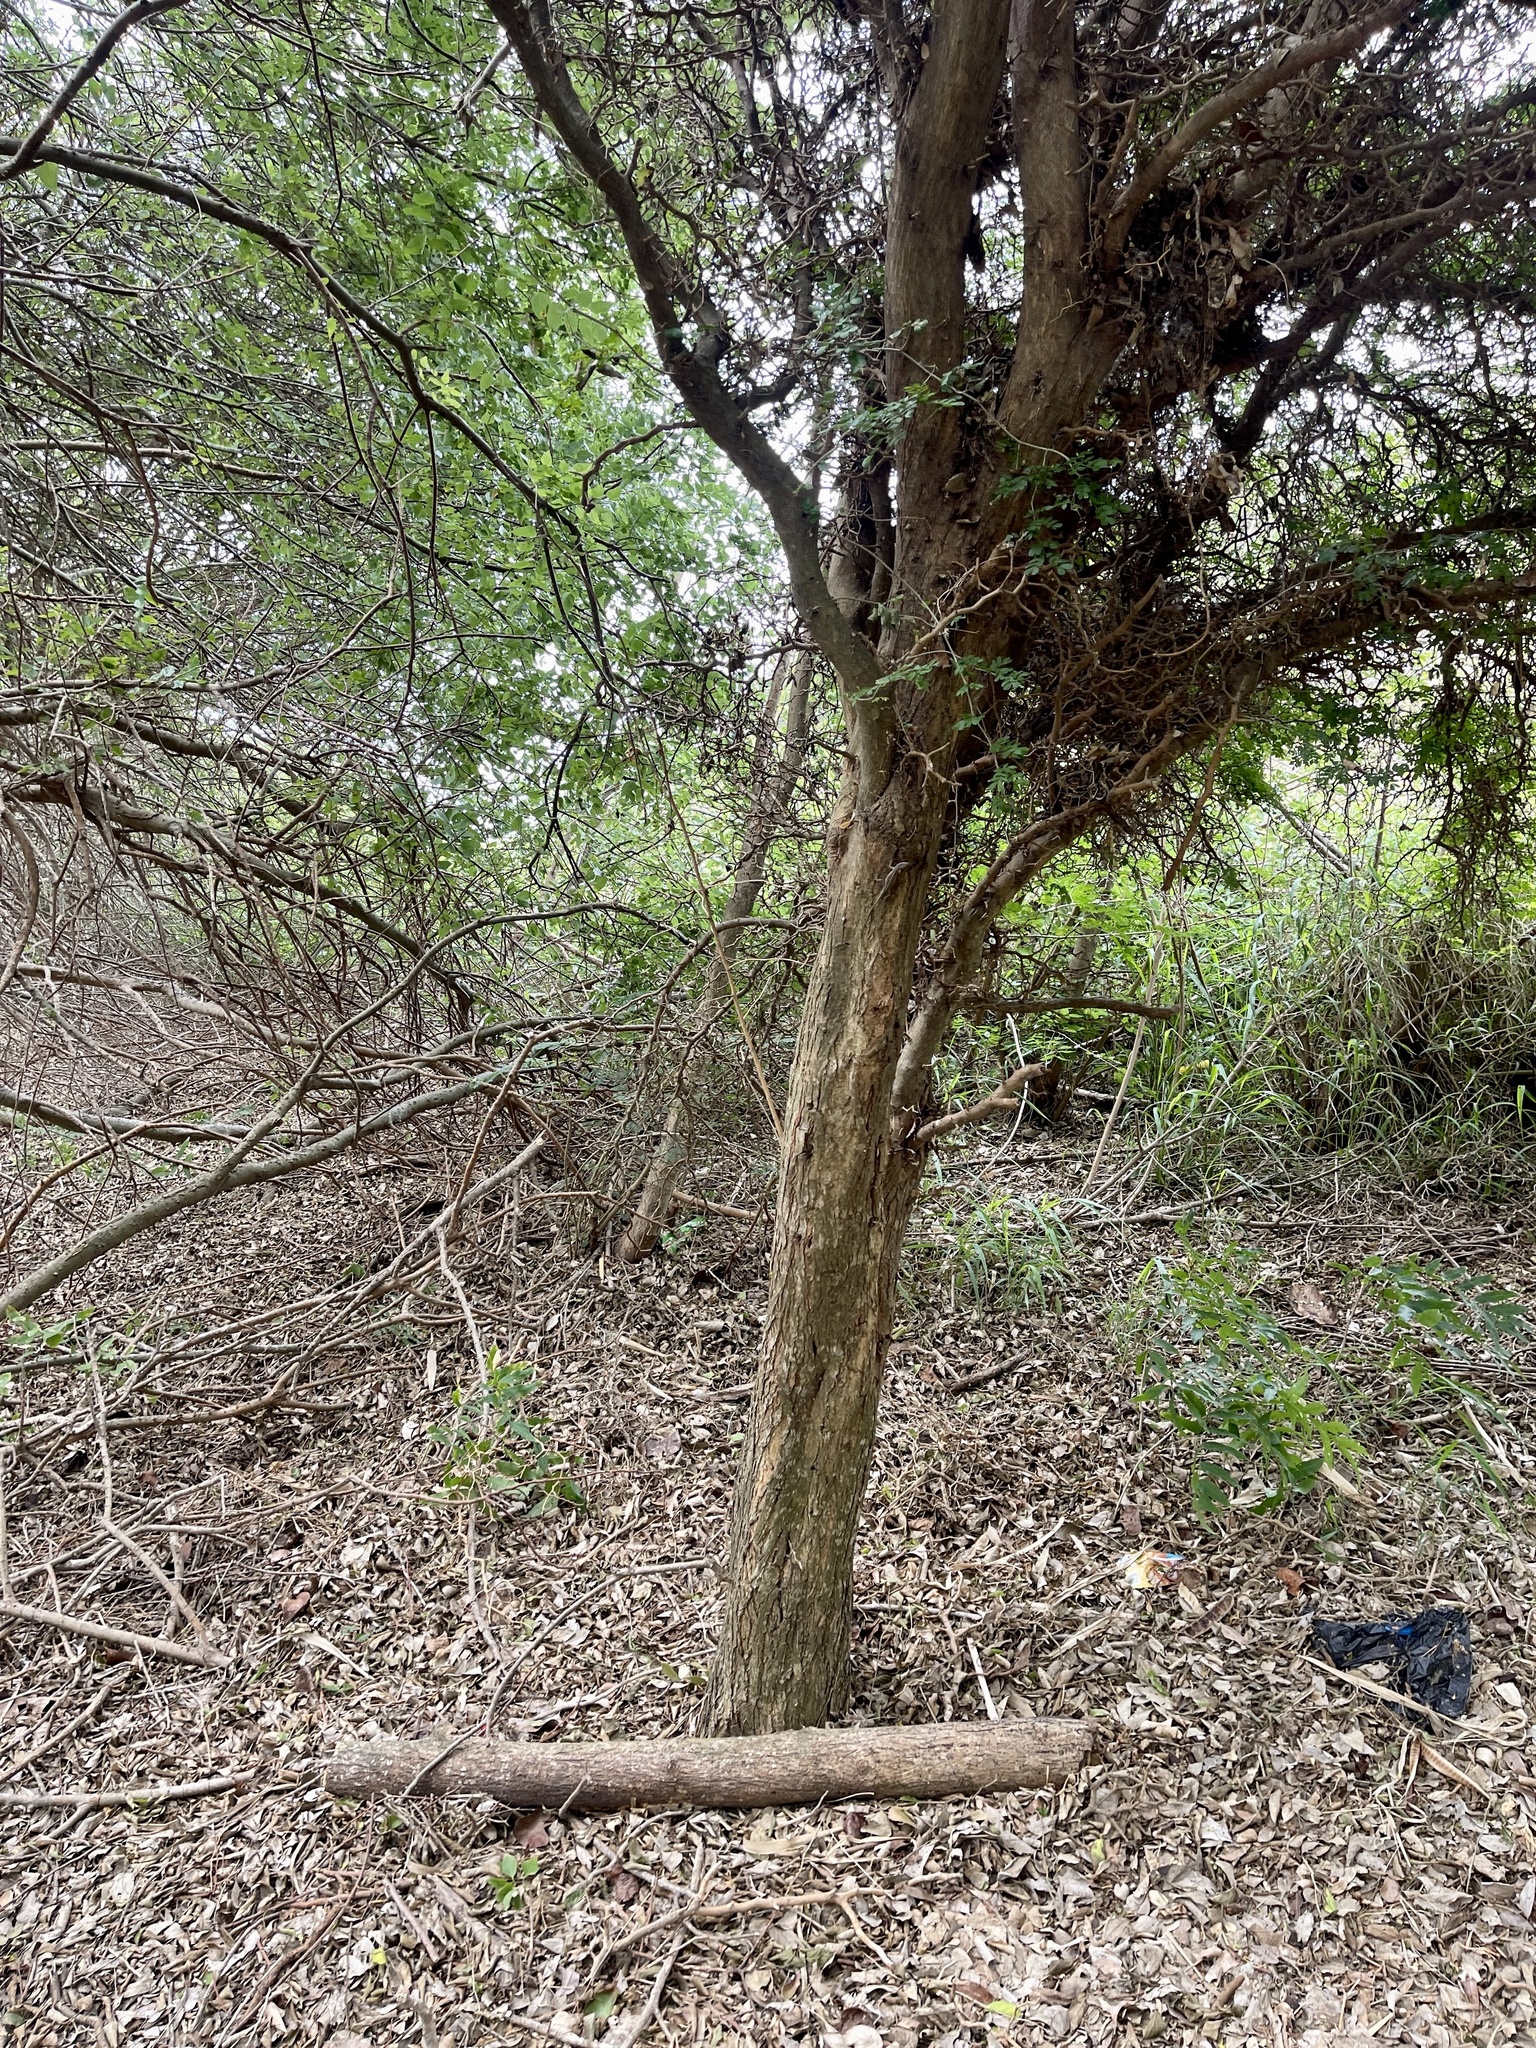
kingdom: Plantae
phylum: Tracheophyta
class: Magnoliopsida
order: Fabales
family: Fabaceae
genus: Ebenopsis
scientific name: Ebenopsis ebano
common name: Ebony blackbead
